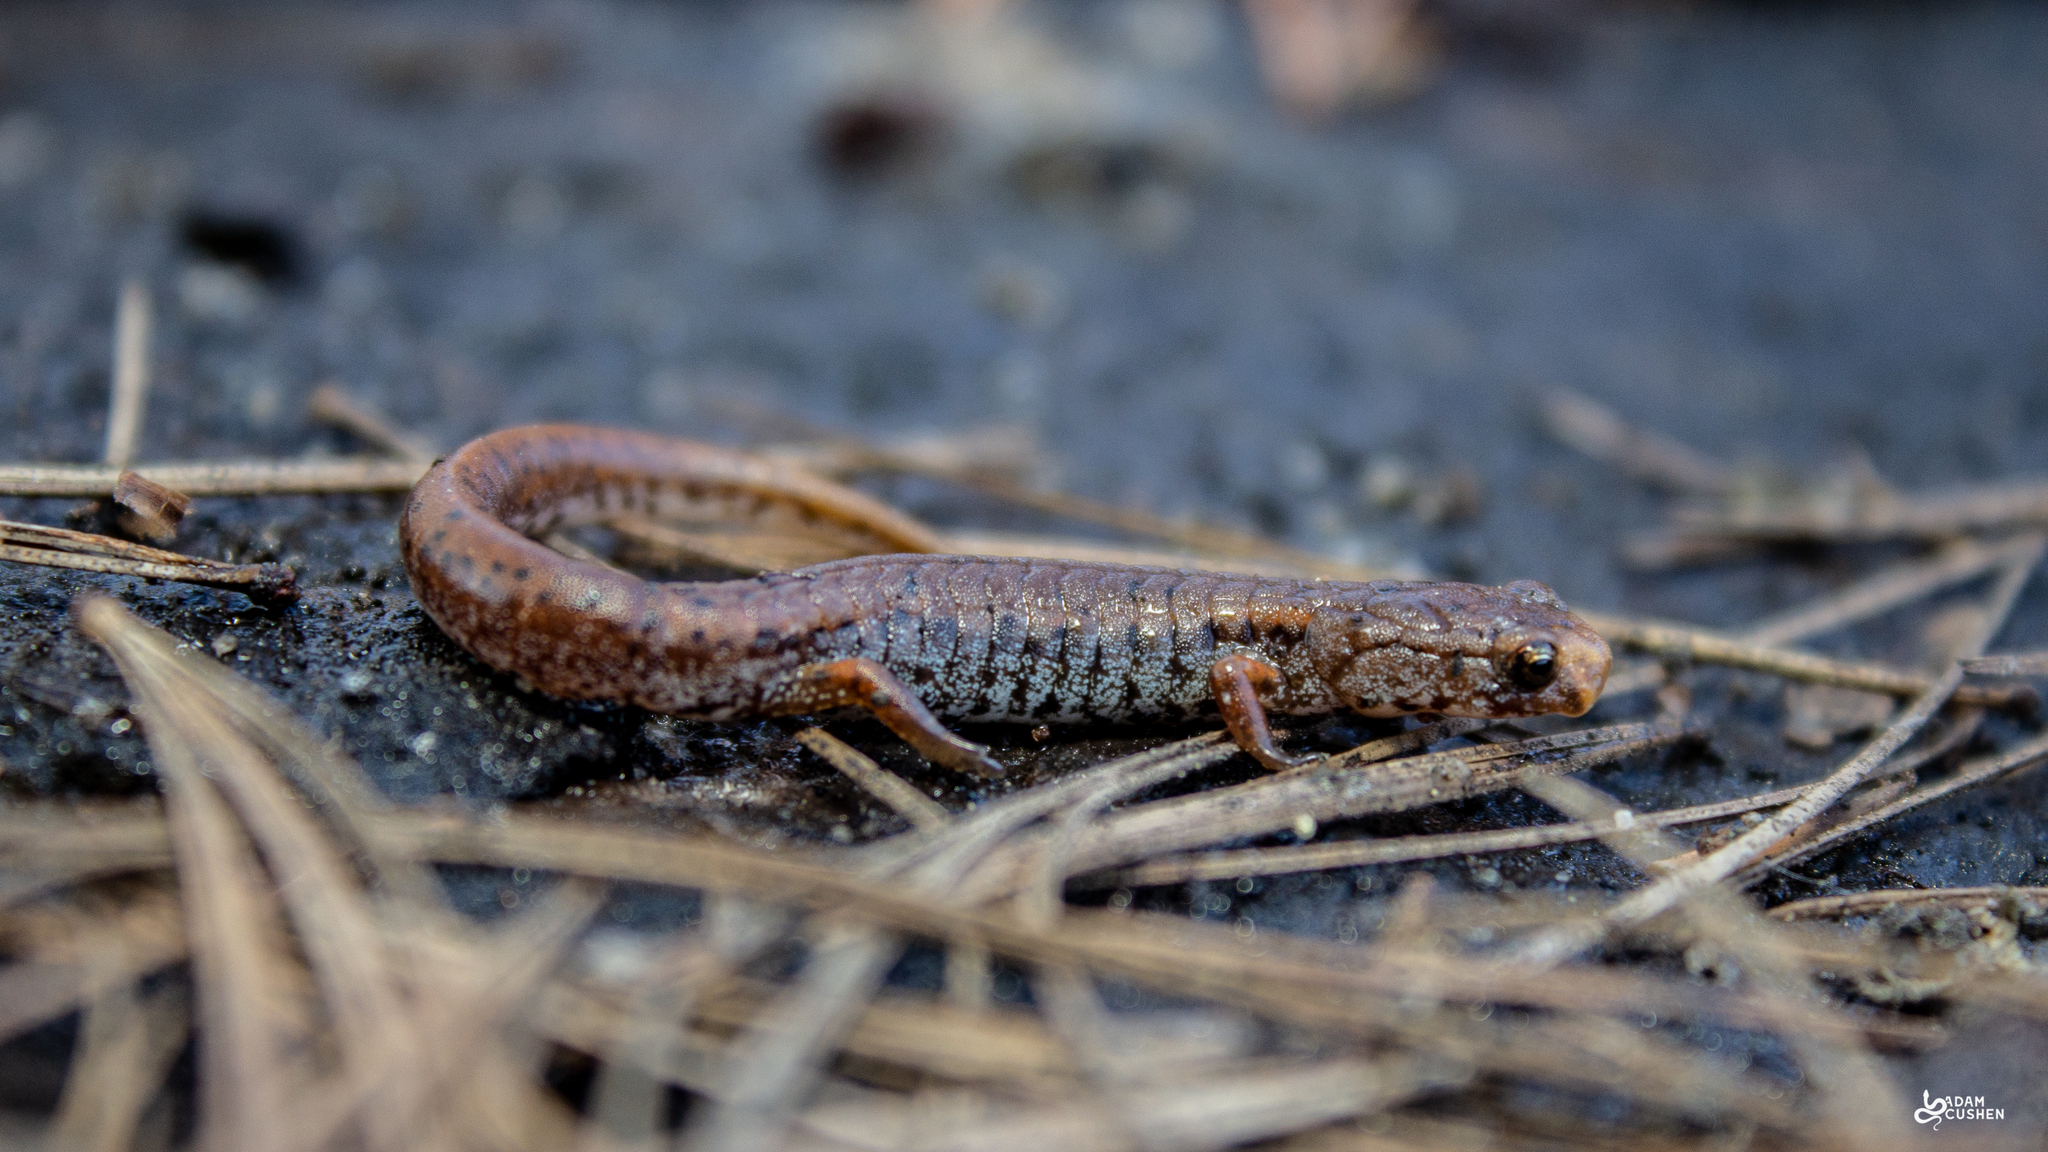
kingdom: Animalia
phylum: Chordata
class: Amphibia
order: Caudata
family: Plethodontidae
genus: Hemidactylium
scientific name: Hemidactylium scutatum
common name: Four-toed salamander
